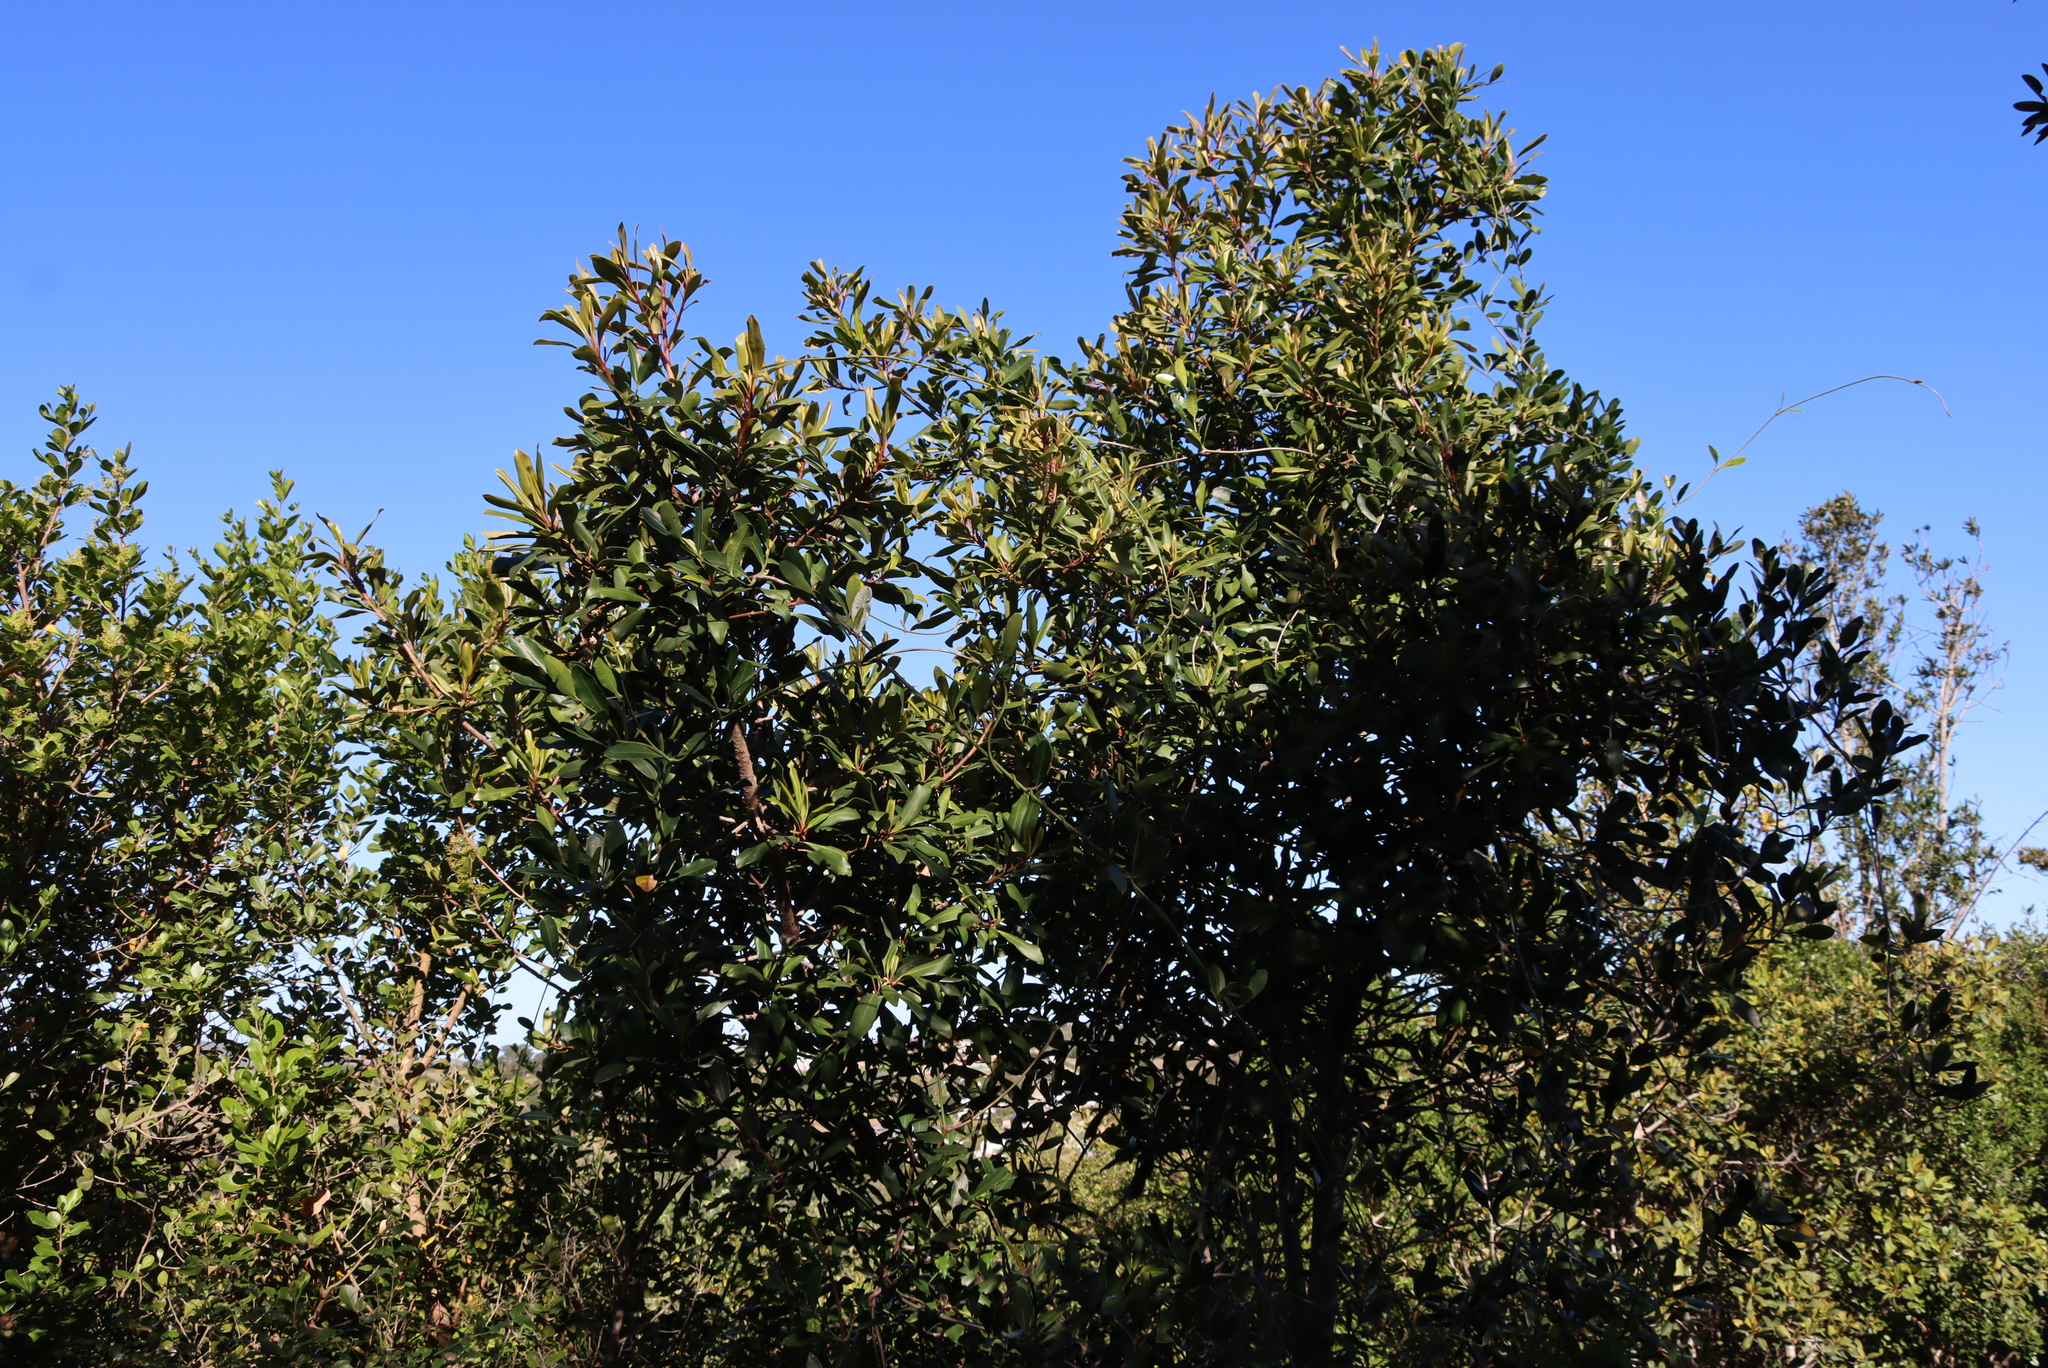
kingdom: Plantae
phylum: Tracheophyta
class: Magnoliopsida
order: Ericales
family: Primulaceae
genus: Myrsine
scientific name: Myrsine melanophloeos
